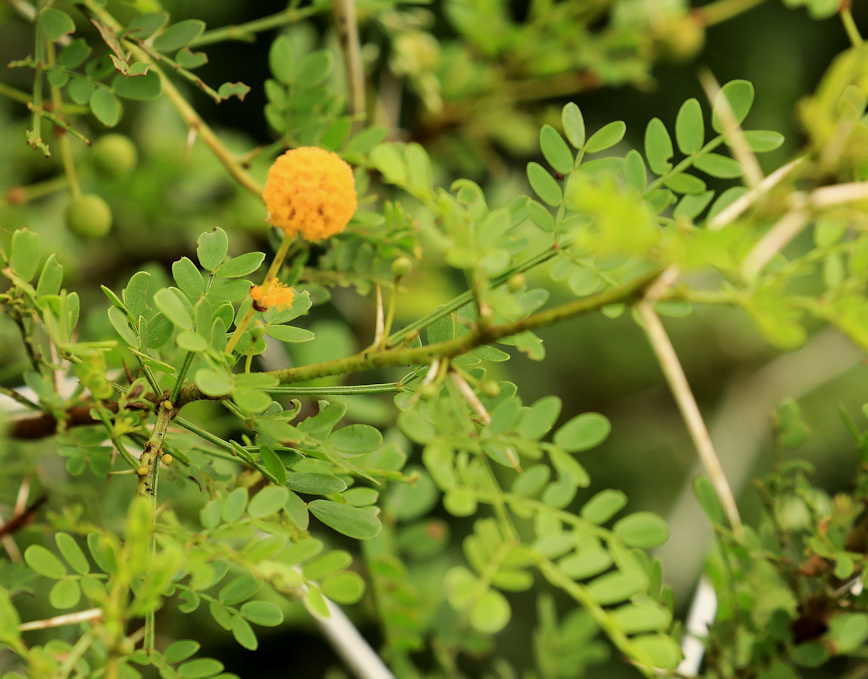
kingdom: Plantae
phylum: Tracheophyta
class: Magnoliopsida
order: Fabales
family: Fabaceae
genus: Vachellia
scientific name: Vachellia exuvialis
